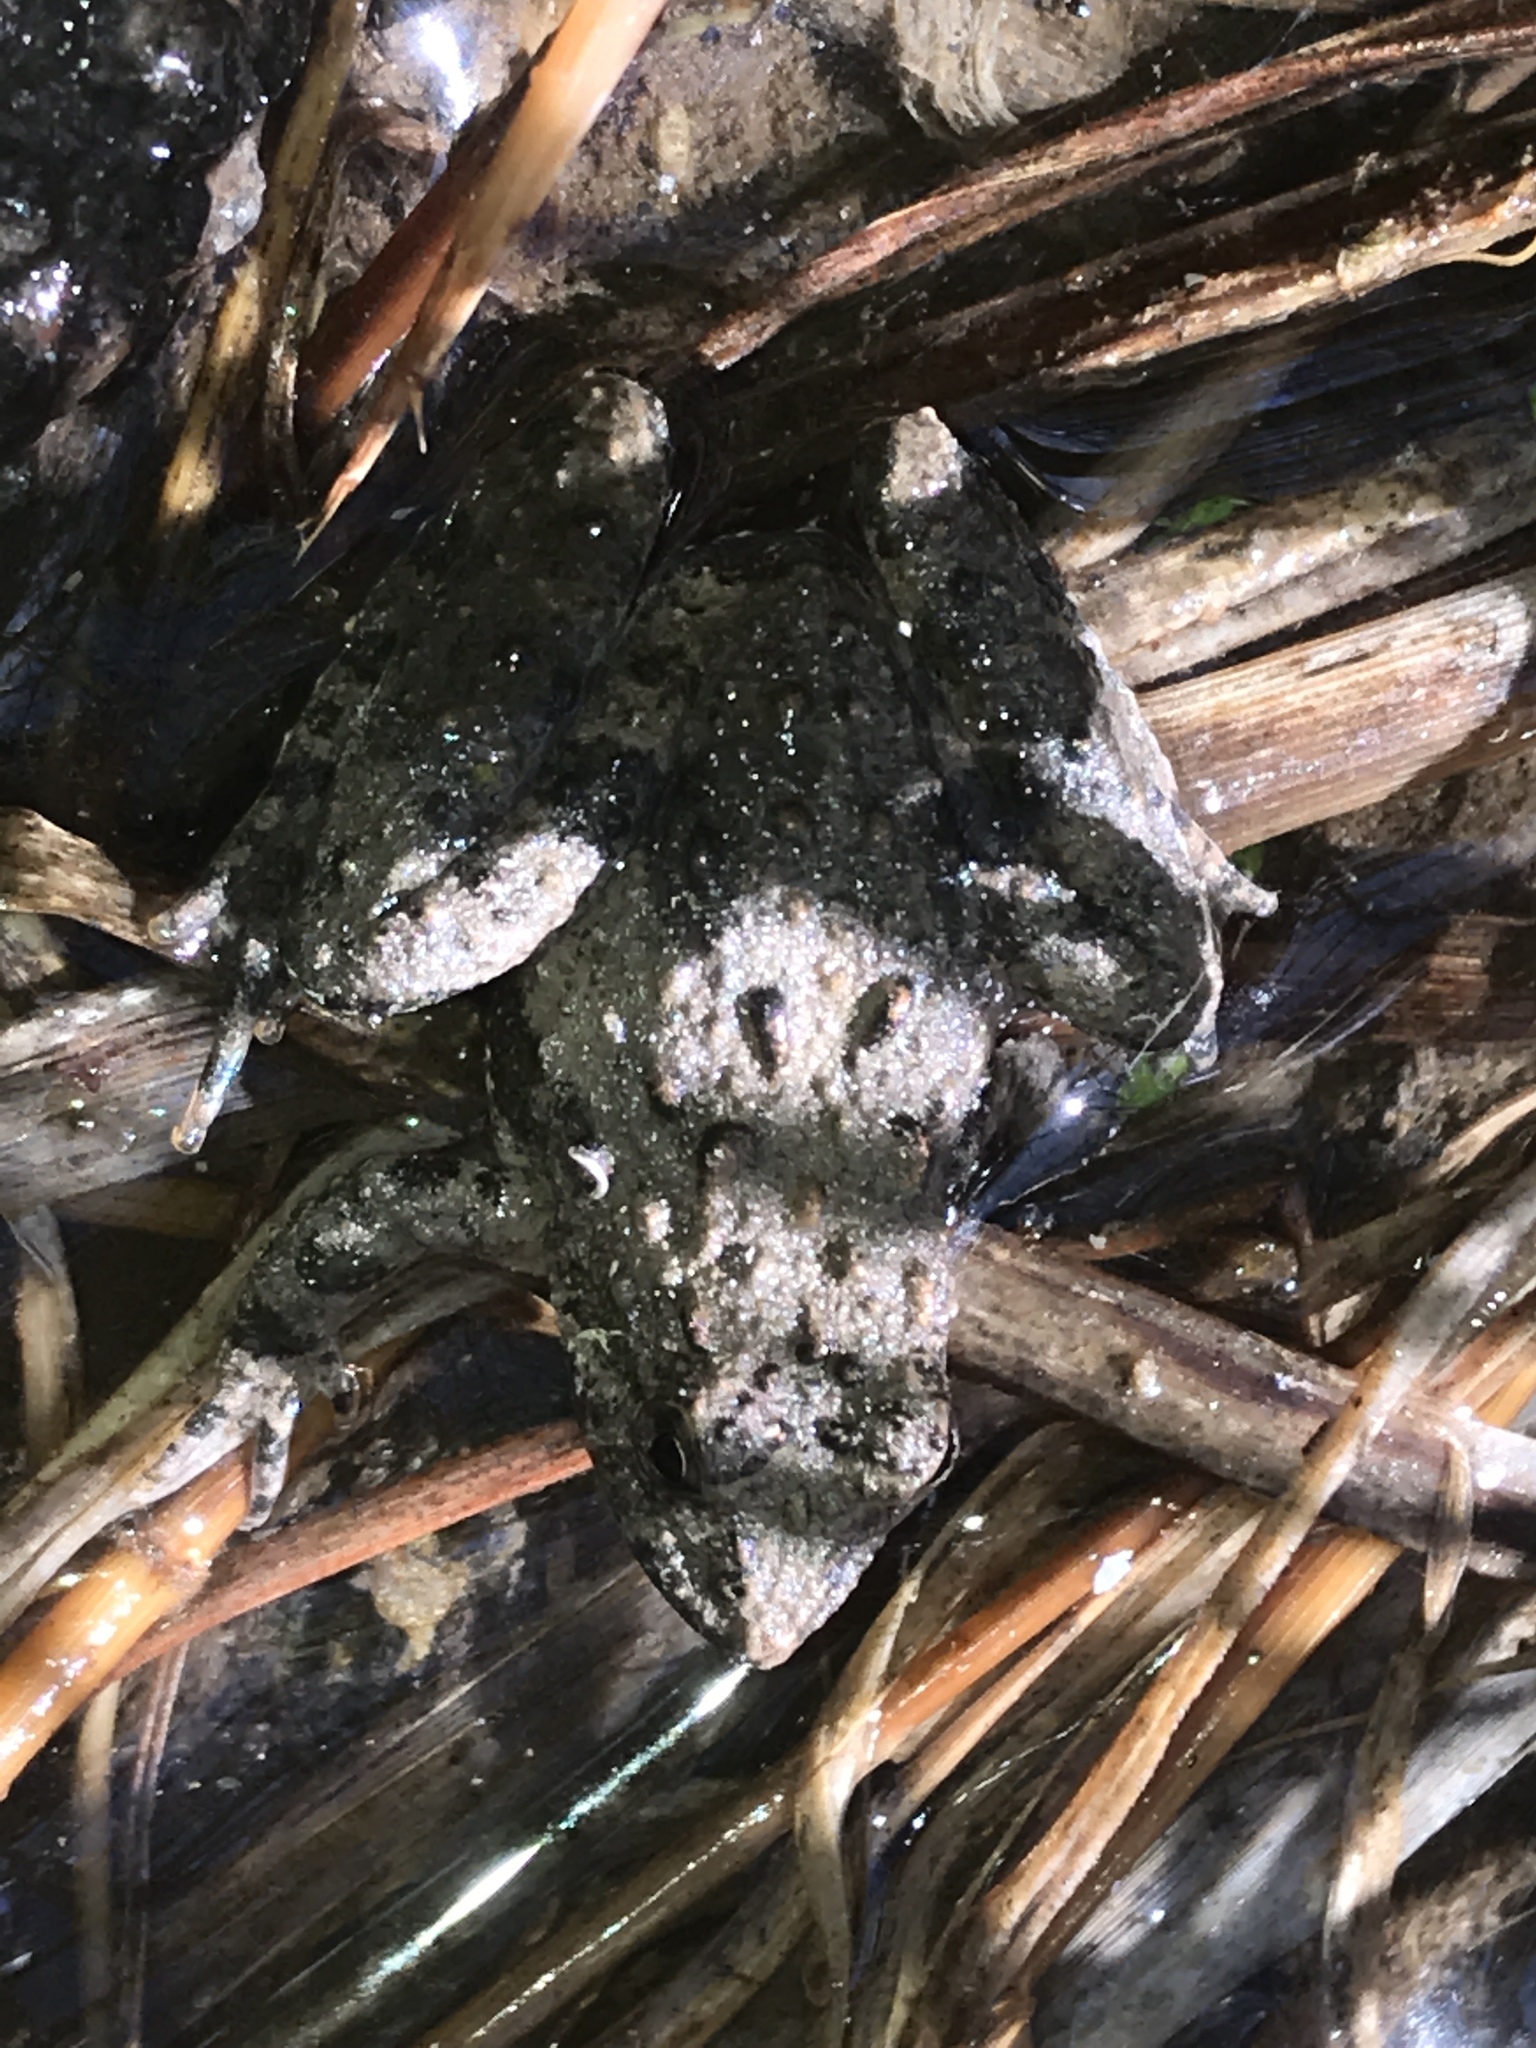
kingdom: Animalia
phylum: Chordata
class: Amphibia
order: Anura
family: Hylidae
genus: Acris
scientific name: Acris blanchardi
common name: Blanchard's cricket frog
